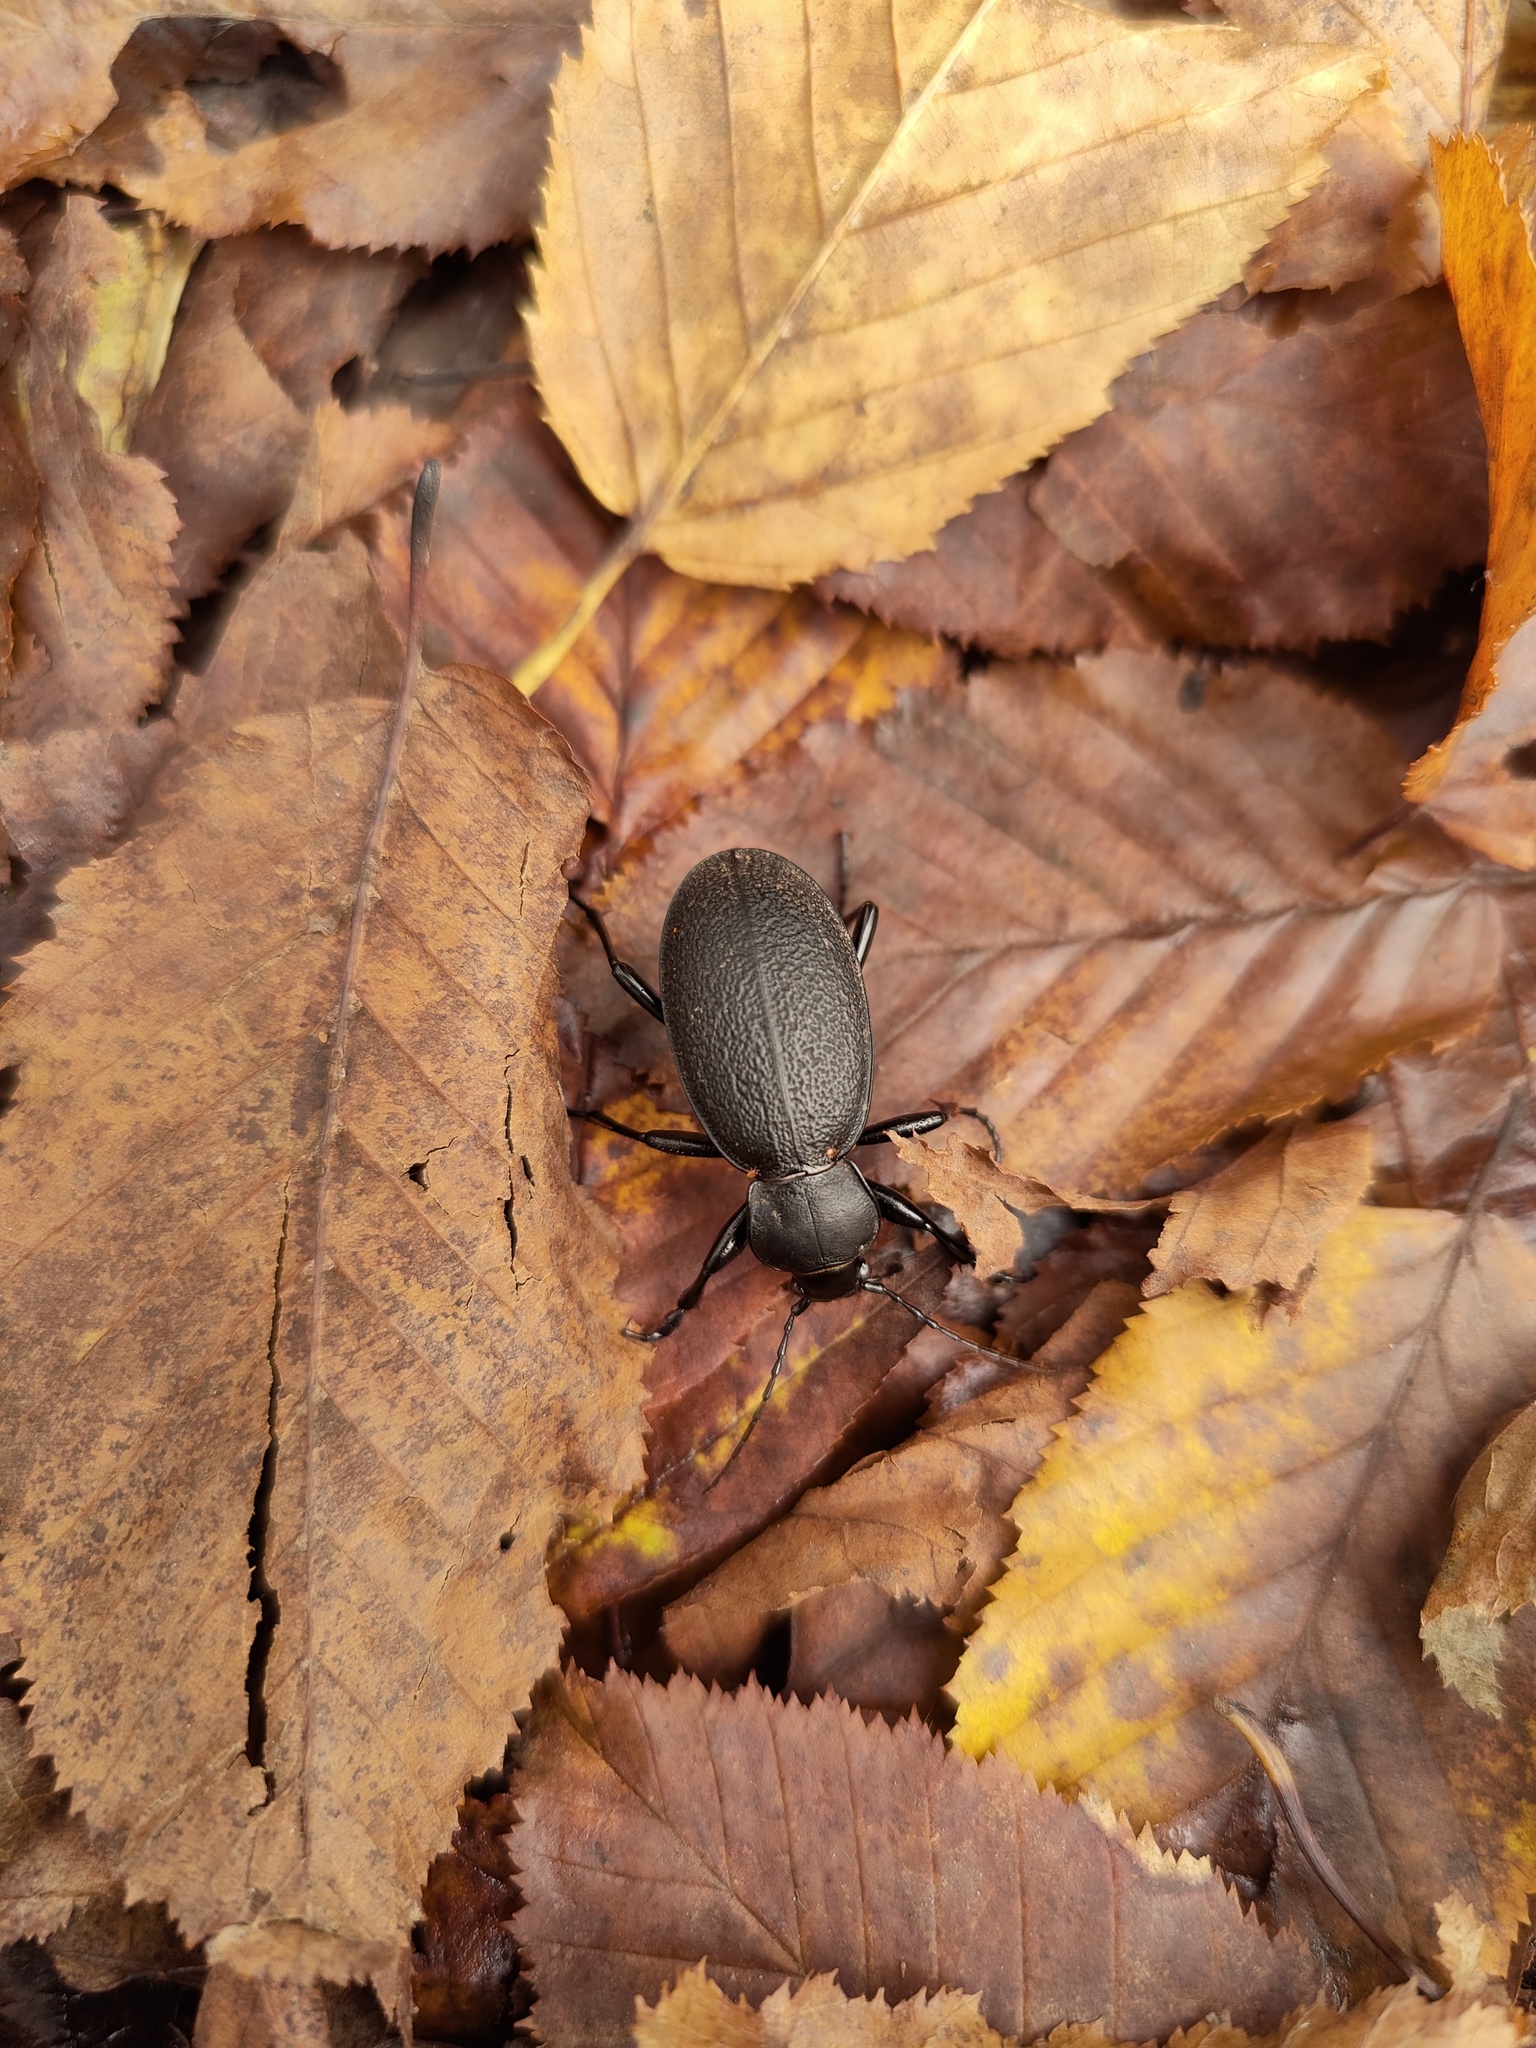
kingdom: Animalia
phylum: Arthropoda
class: Insecta
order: Coleoptera
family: Carabidae
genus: Carabus
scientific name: Carabus coriaceus
